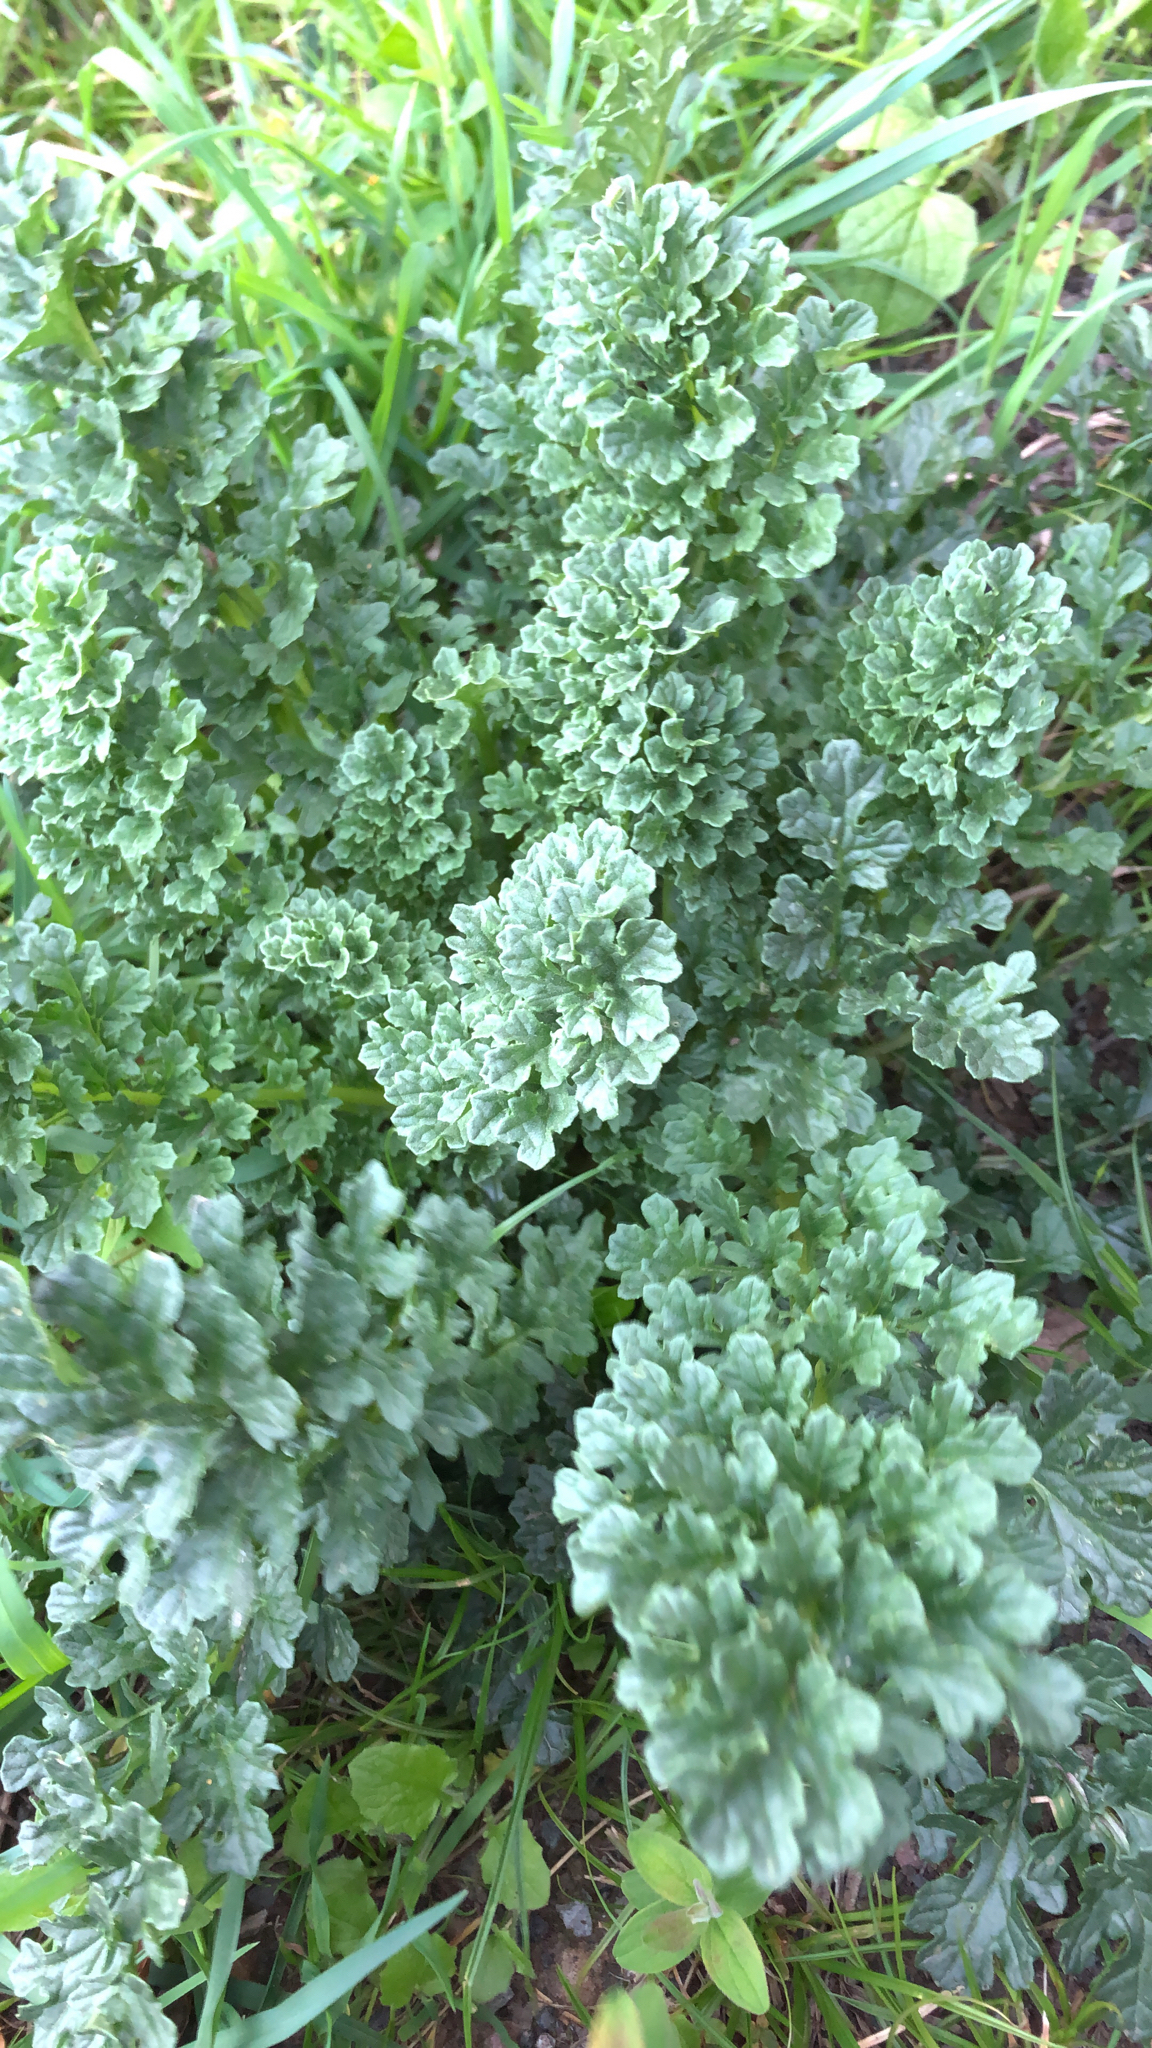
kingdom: Plantae
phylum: Tracheophyta
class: Magnoliopsida
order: Asterales
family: Asteraceae
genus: Jacobaea
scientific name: Jacobaea vulgaris
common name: Stinking willie
